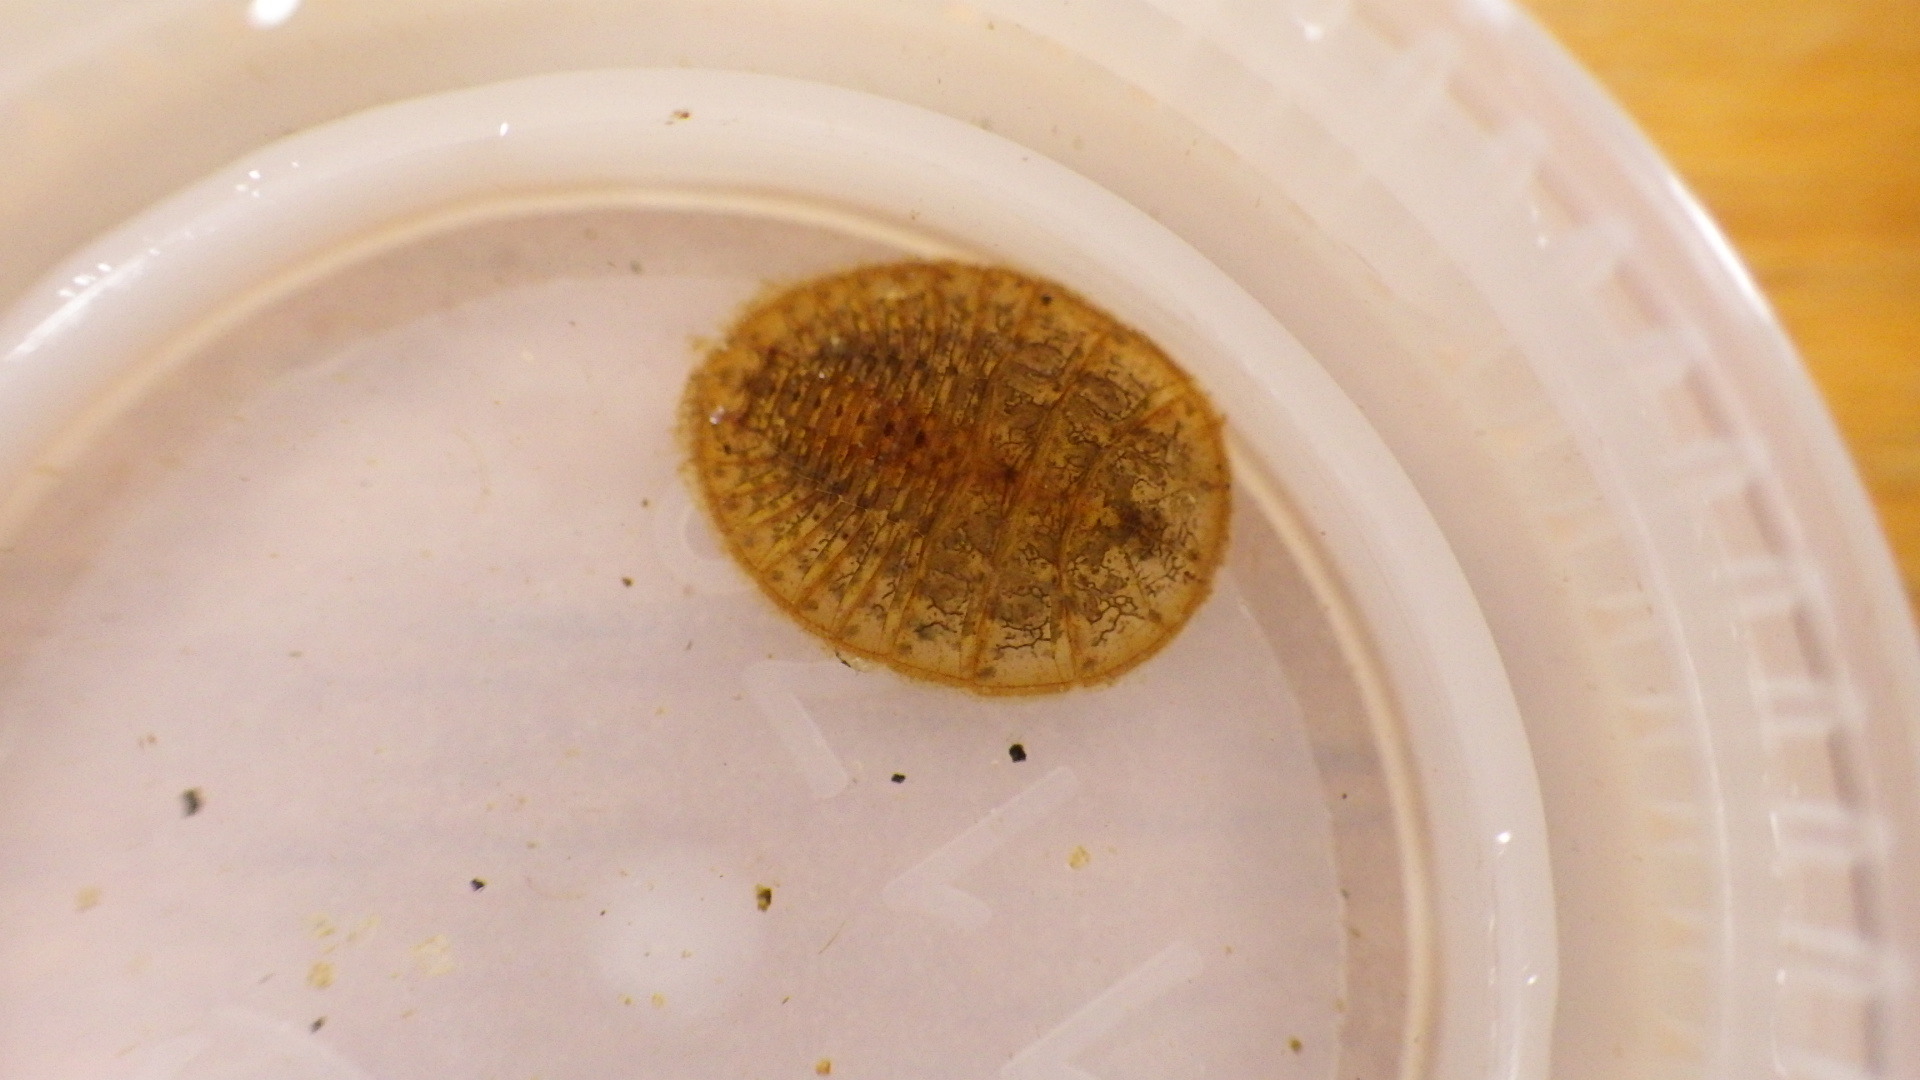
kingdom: Animalia
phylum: Arthropoda
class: Insecta
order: Coleoptera
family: Psephenidae
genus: Psephenus
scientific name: Psephenus herricki
